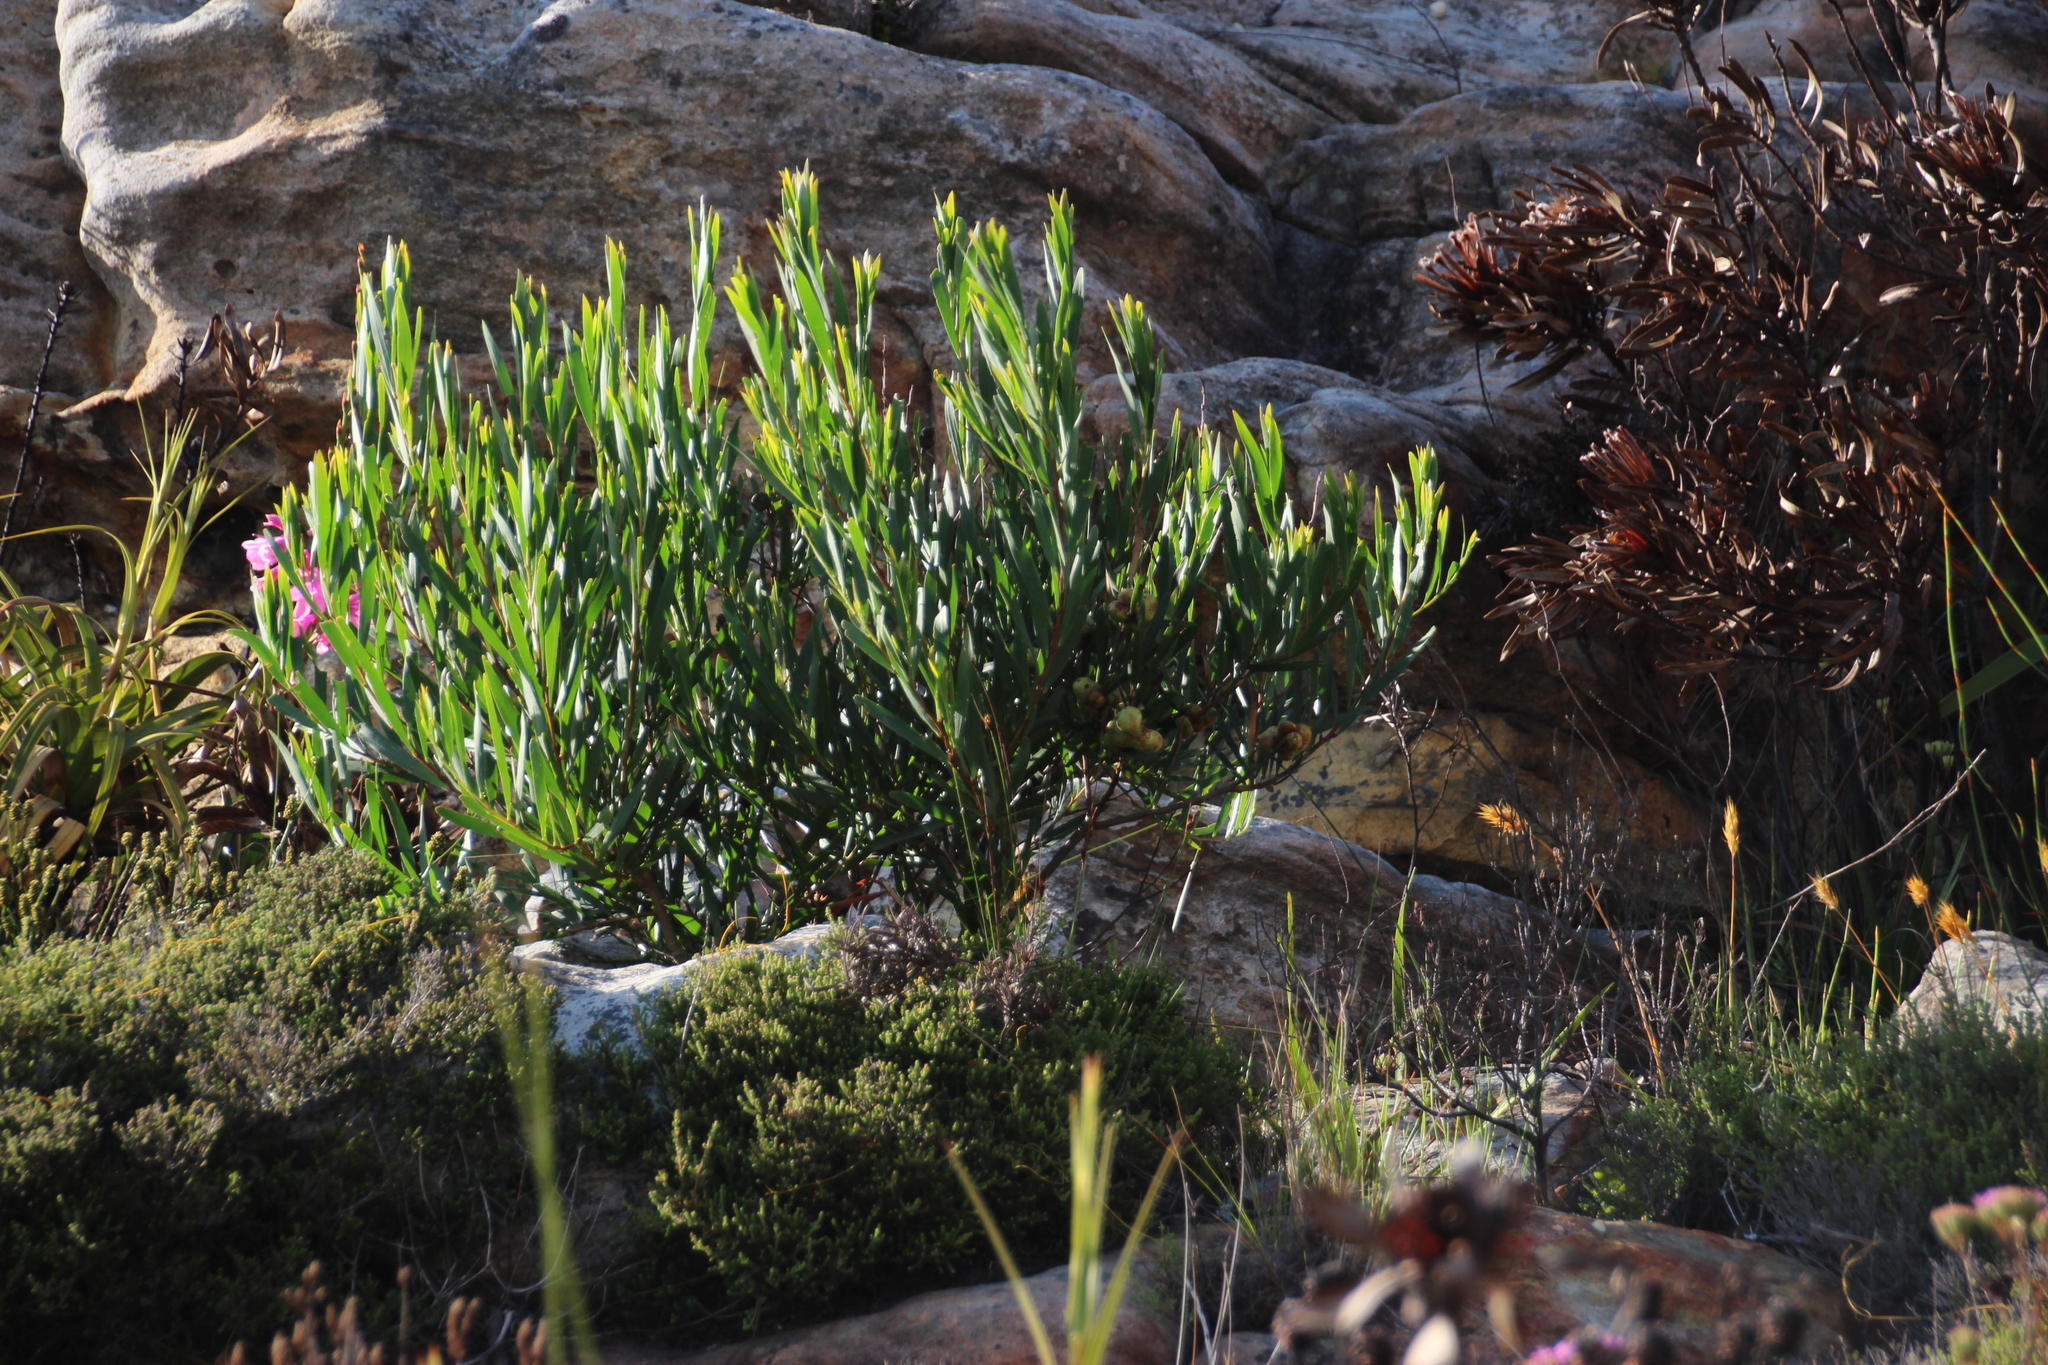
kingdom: Plantae
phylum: Tracheophyta
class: Magnoliopsida
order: Fabales
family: Fabaceae
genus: Acacia
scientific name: Acacia longifolia
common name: Sydney golden wattle
